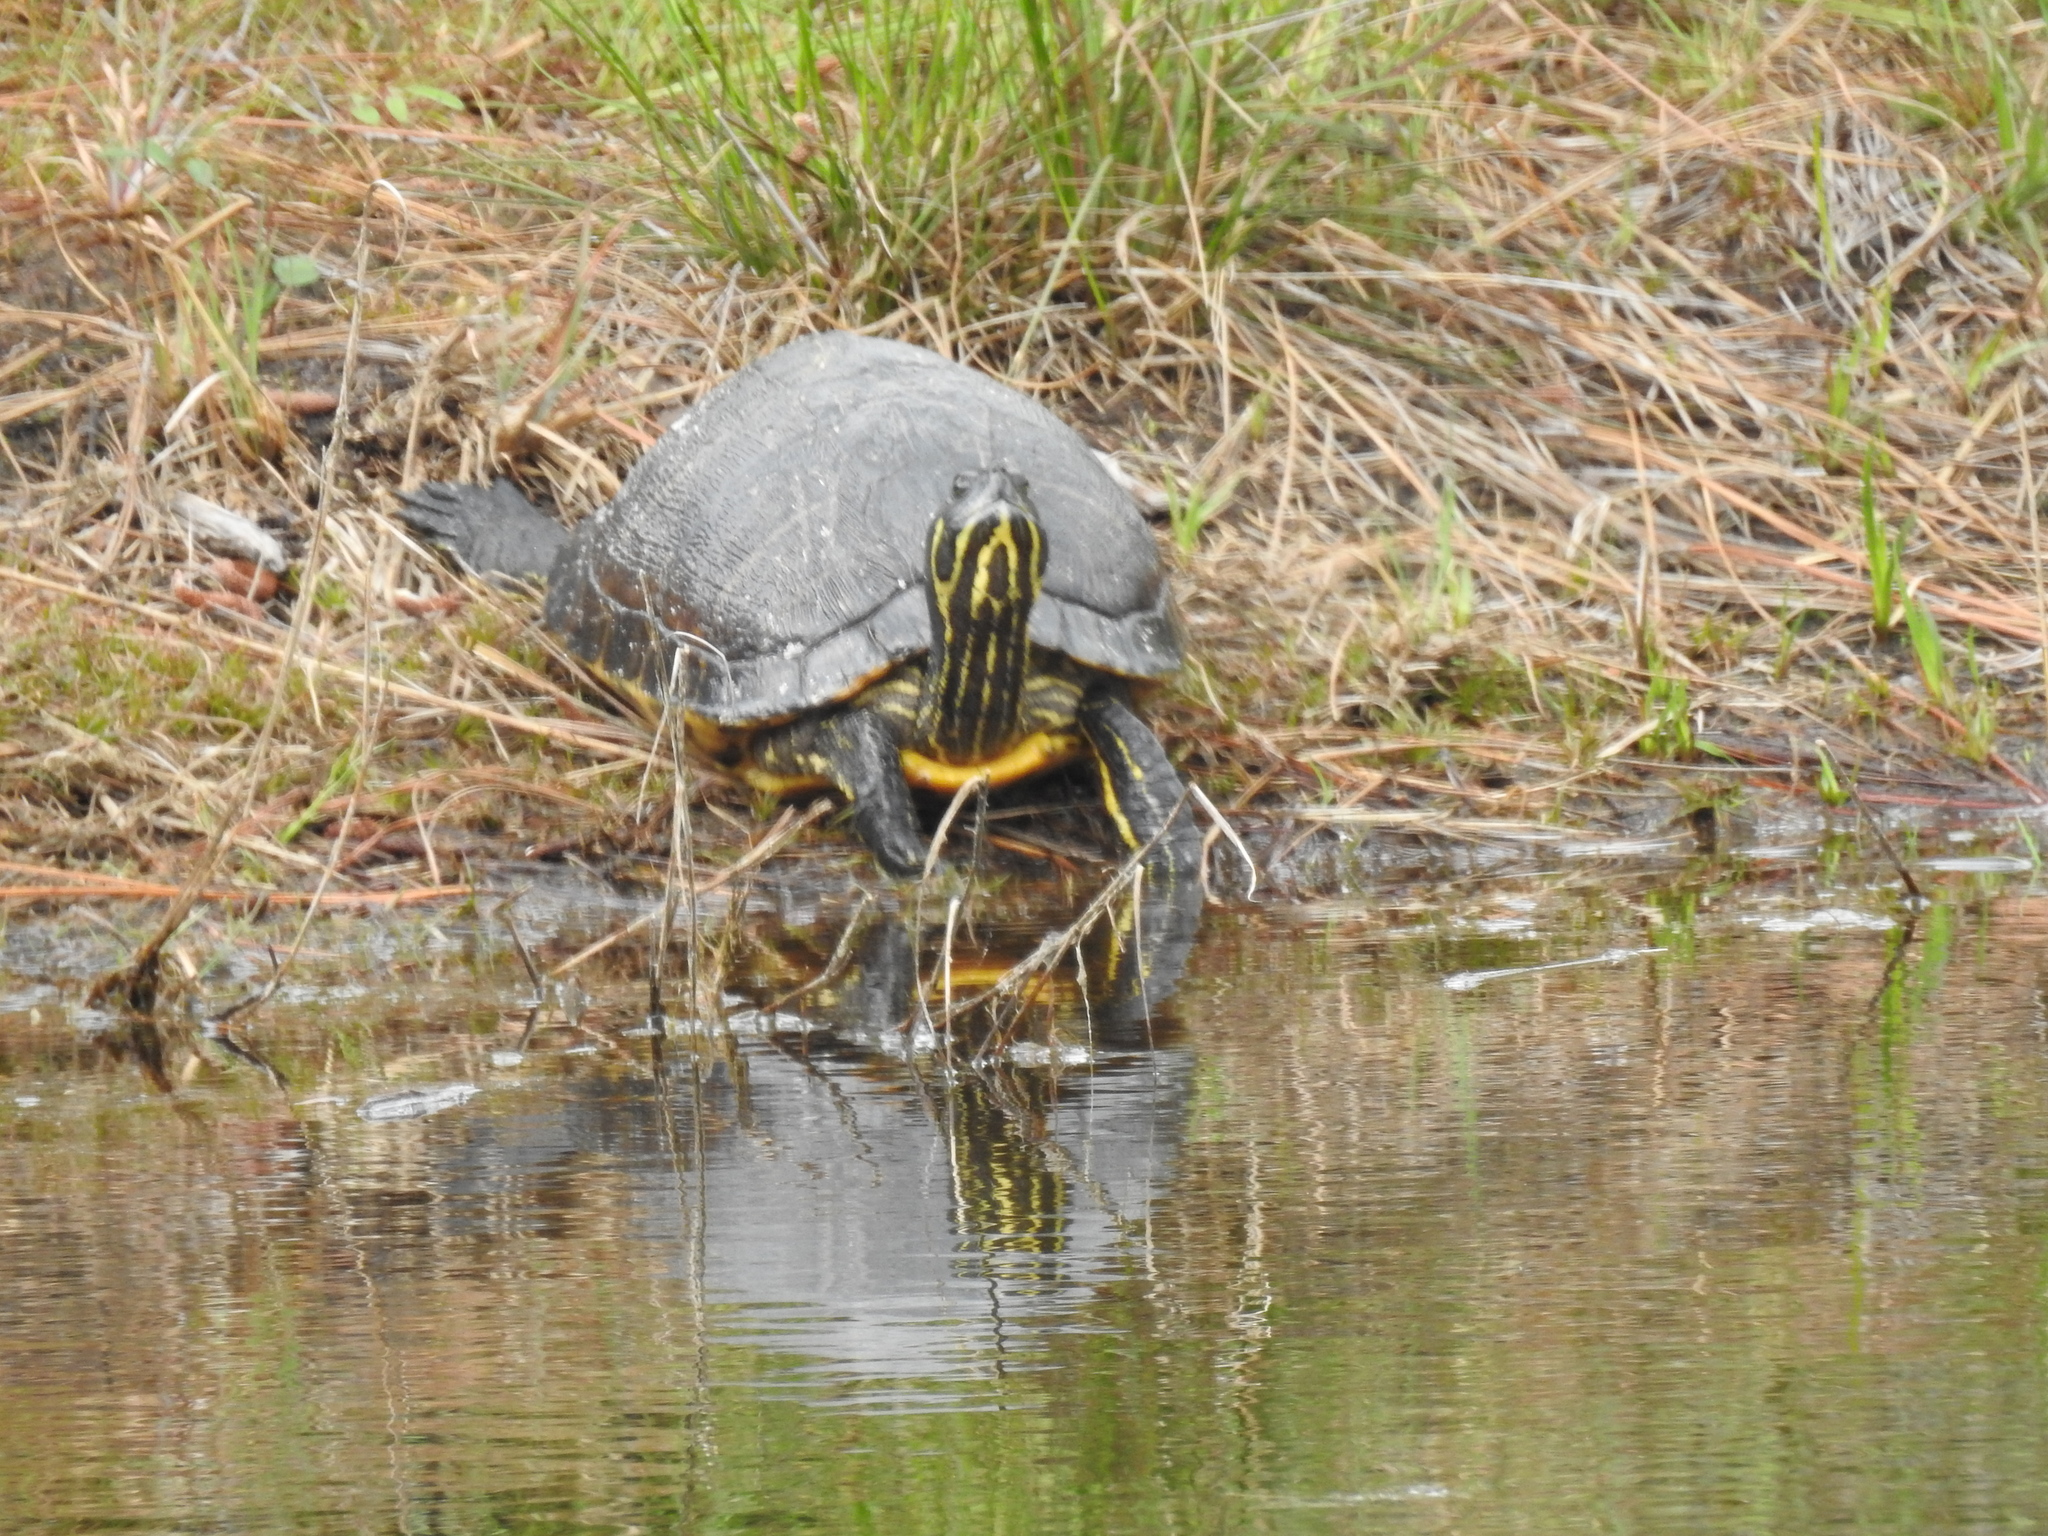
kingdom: Animalia
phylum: Chordata
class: Testudines
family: Emydidae
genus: Pseudemys
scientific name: Pseudemys concinna
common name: Eastern river cooter
